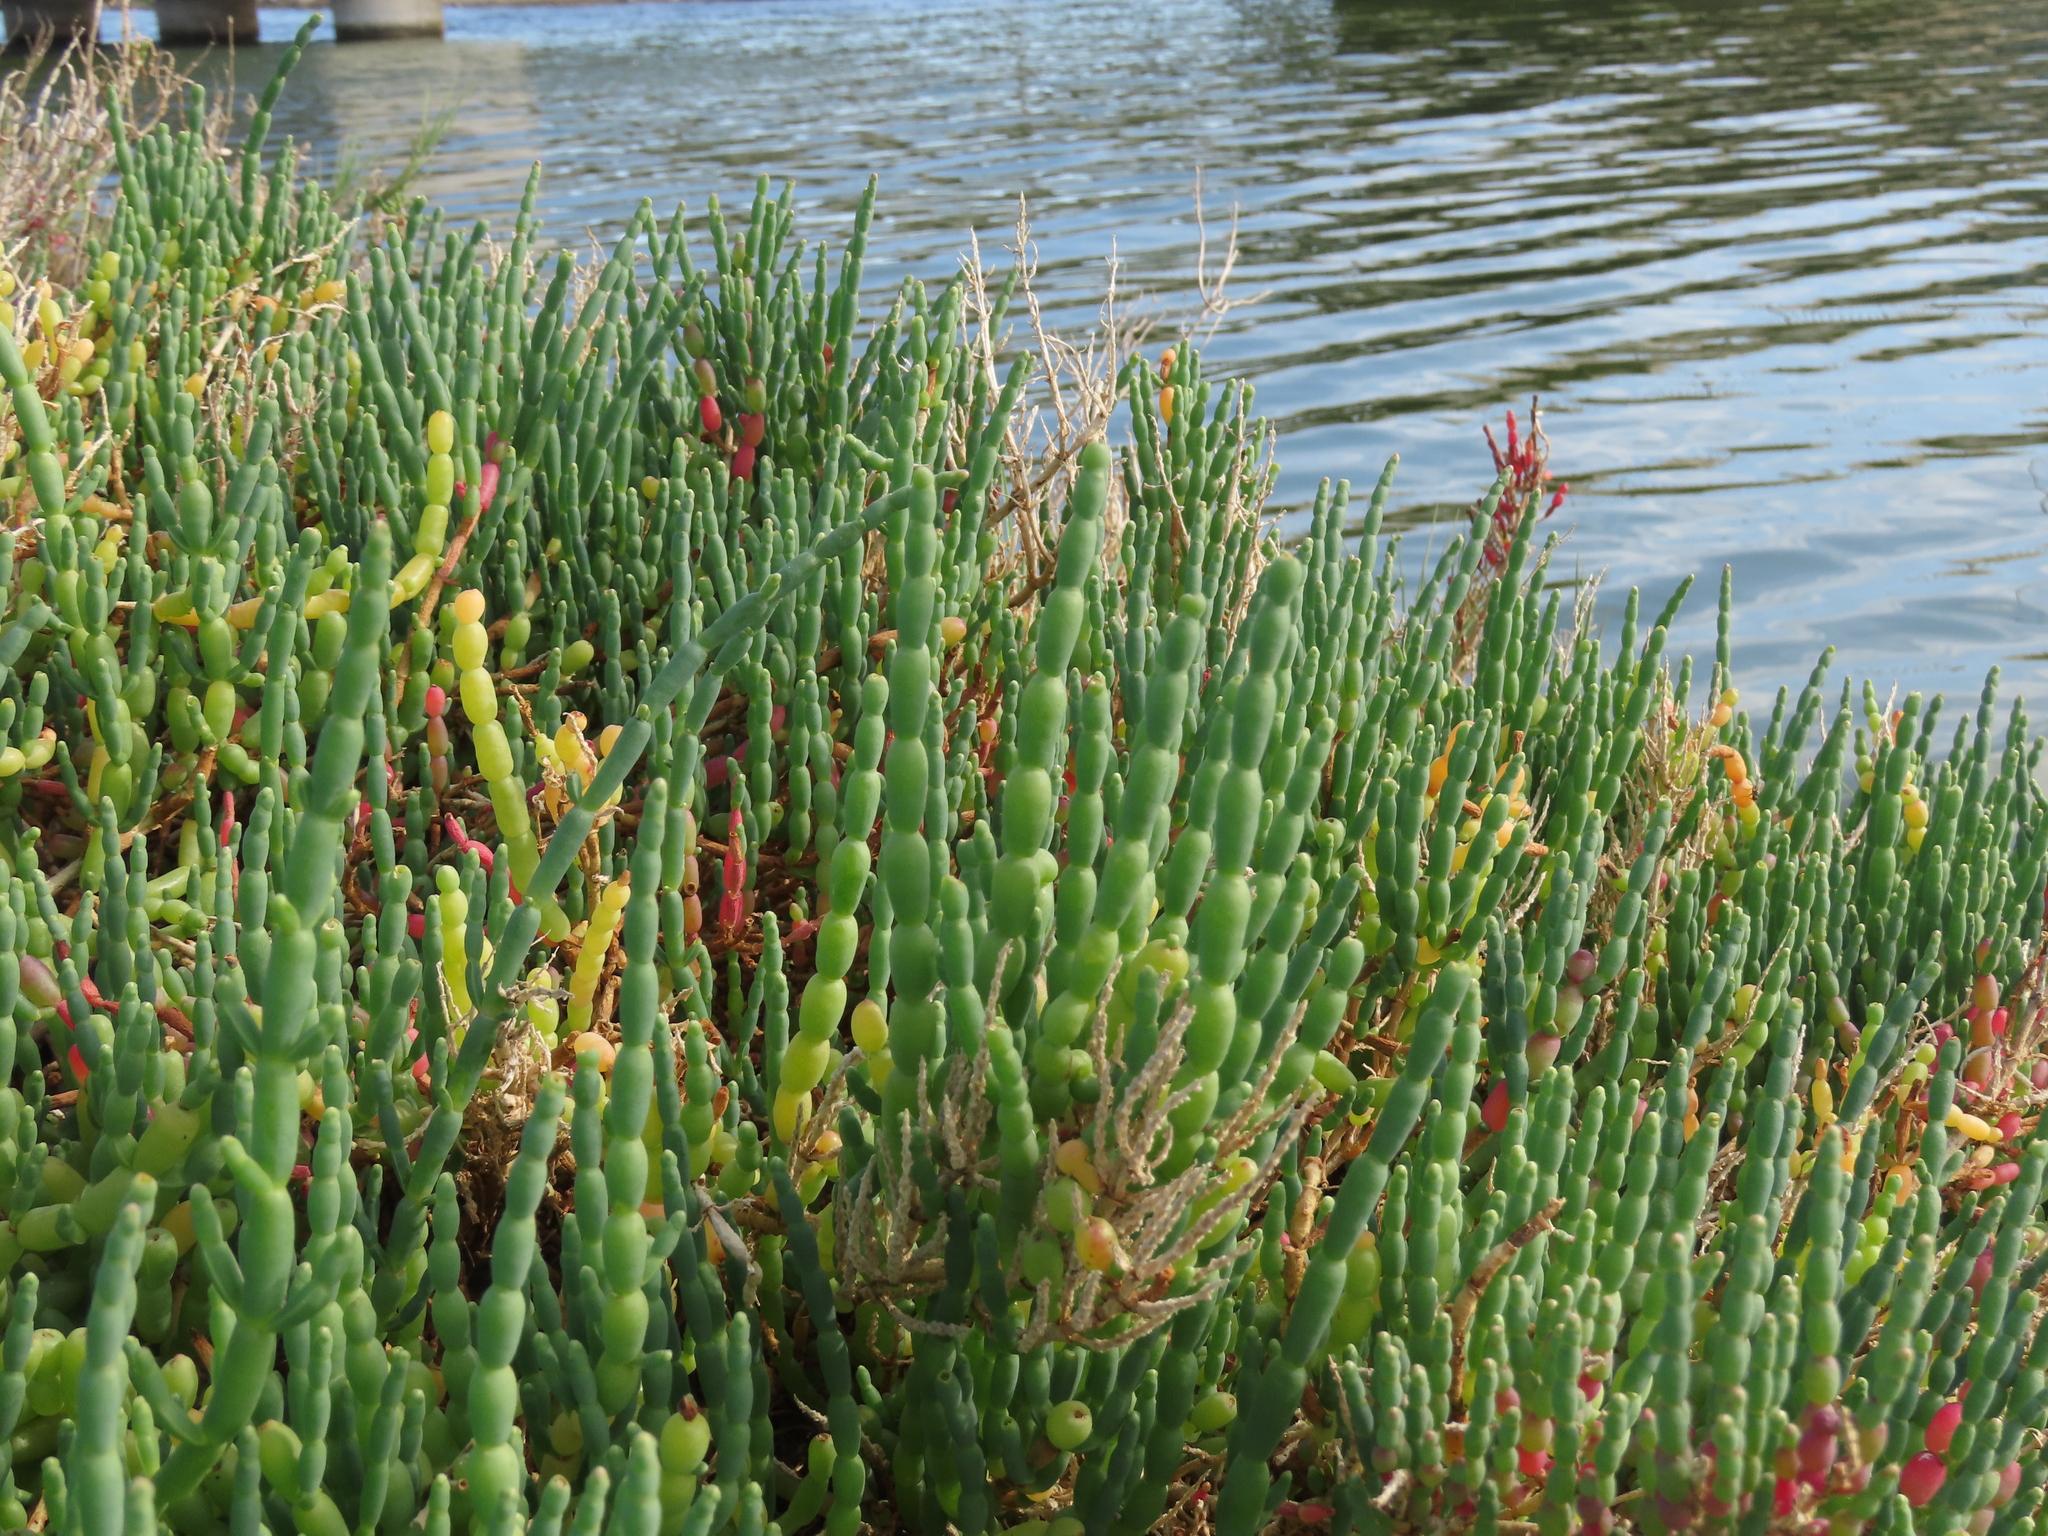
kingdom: Plantae
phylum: Tracheophyta
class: Magnoliopsida
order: Caryophyllales
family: Amaranthaceae
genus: Salicornia
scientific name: Salicornia neei
